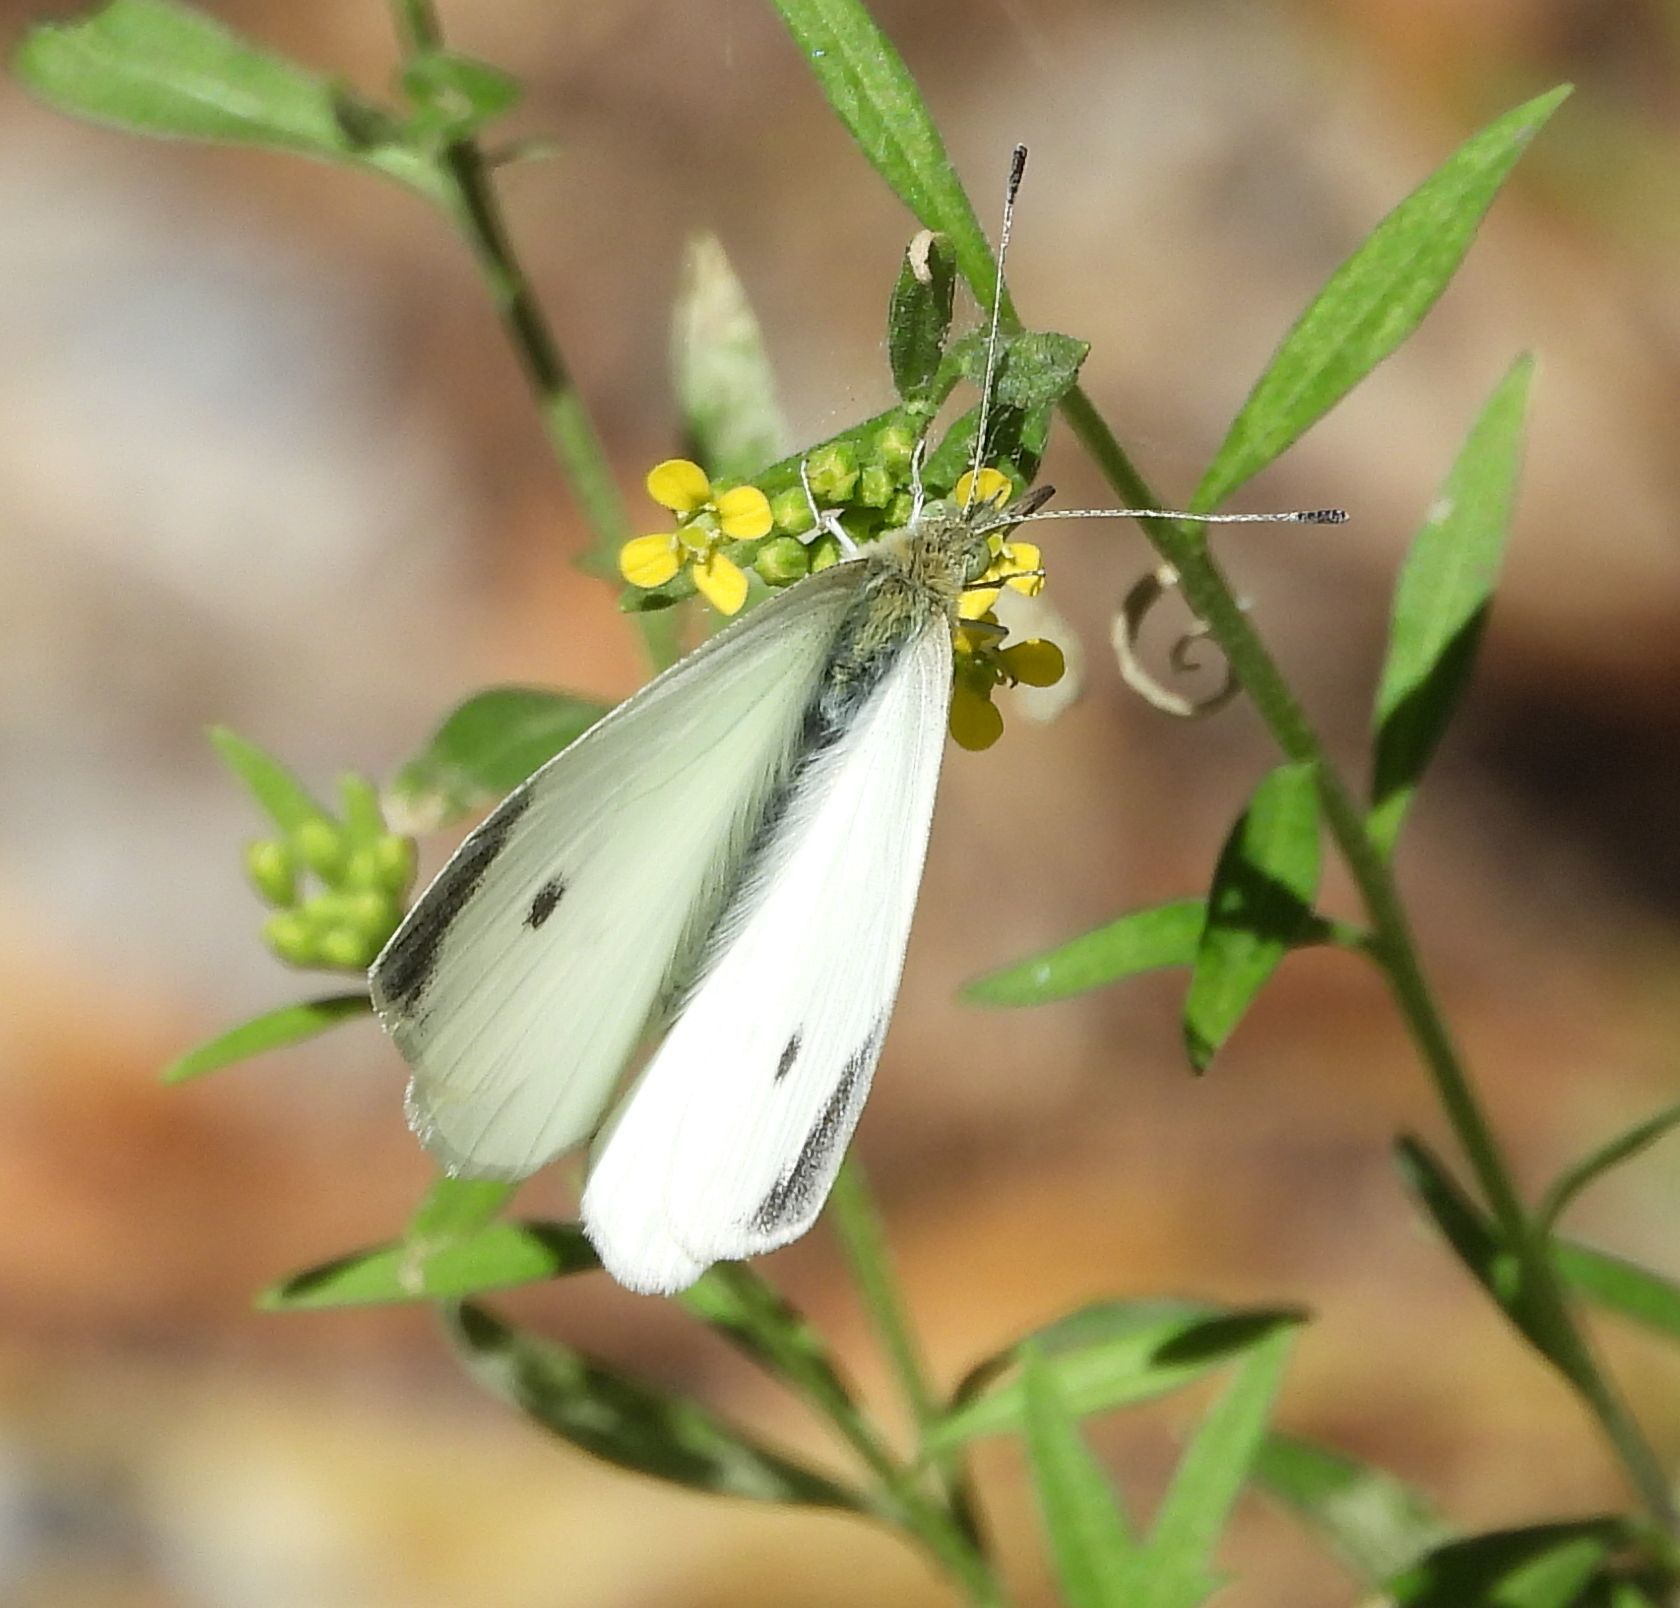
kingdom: Animalia
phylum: Arthropoda
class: Insecta
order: Lepidoptera
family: Pieridae
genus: Pieris
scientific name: Pieris rapae
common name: Small white
